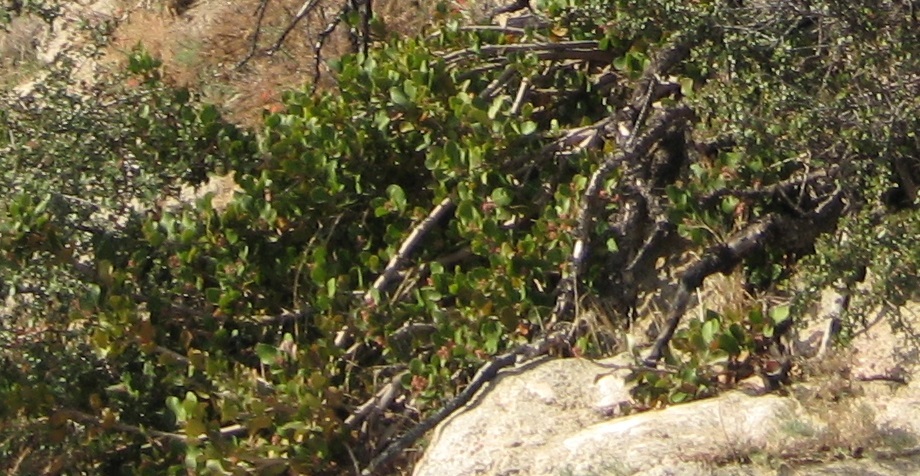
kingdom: Plantae
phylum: Tracheophyta
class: Magnoliopsida
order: Sapindales
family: Anacardiaceae
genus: Rhus
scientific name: Rhus integrifolia
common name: Lemonade sumac
